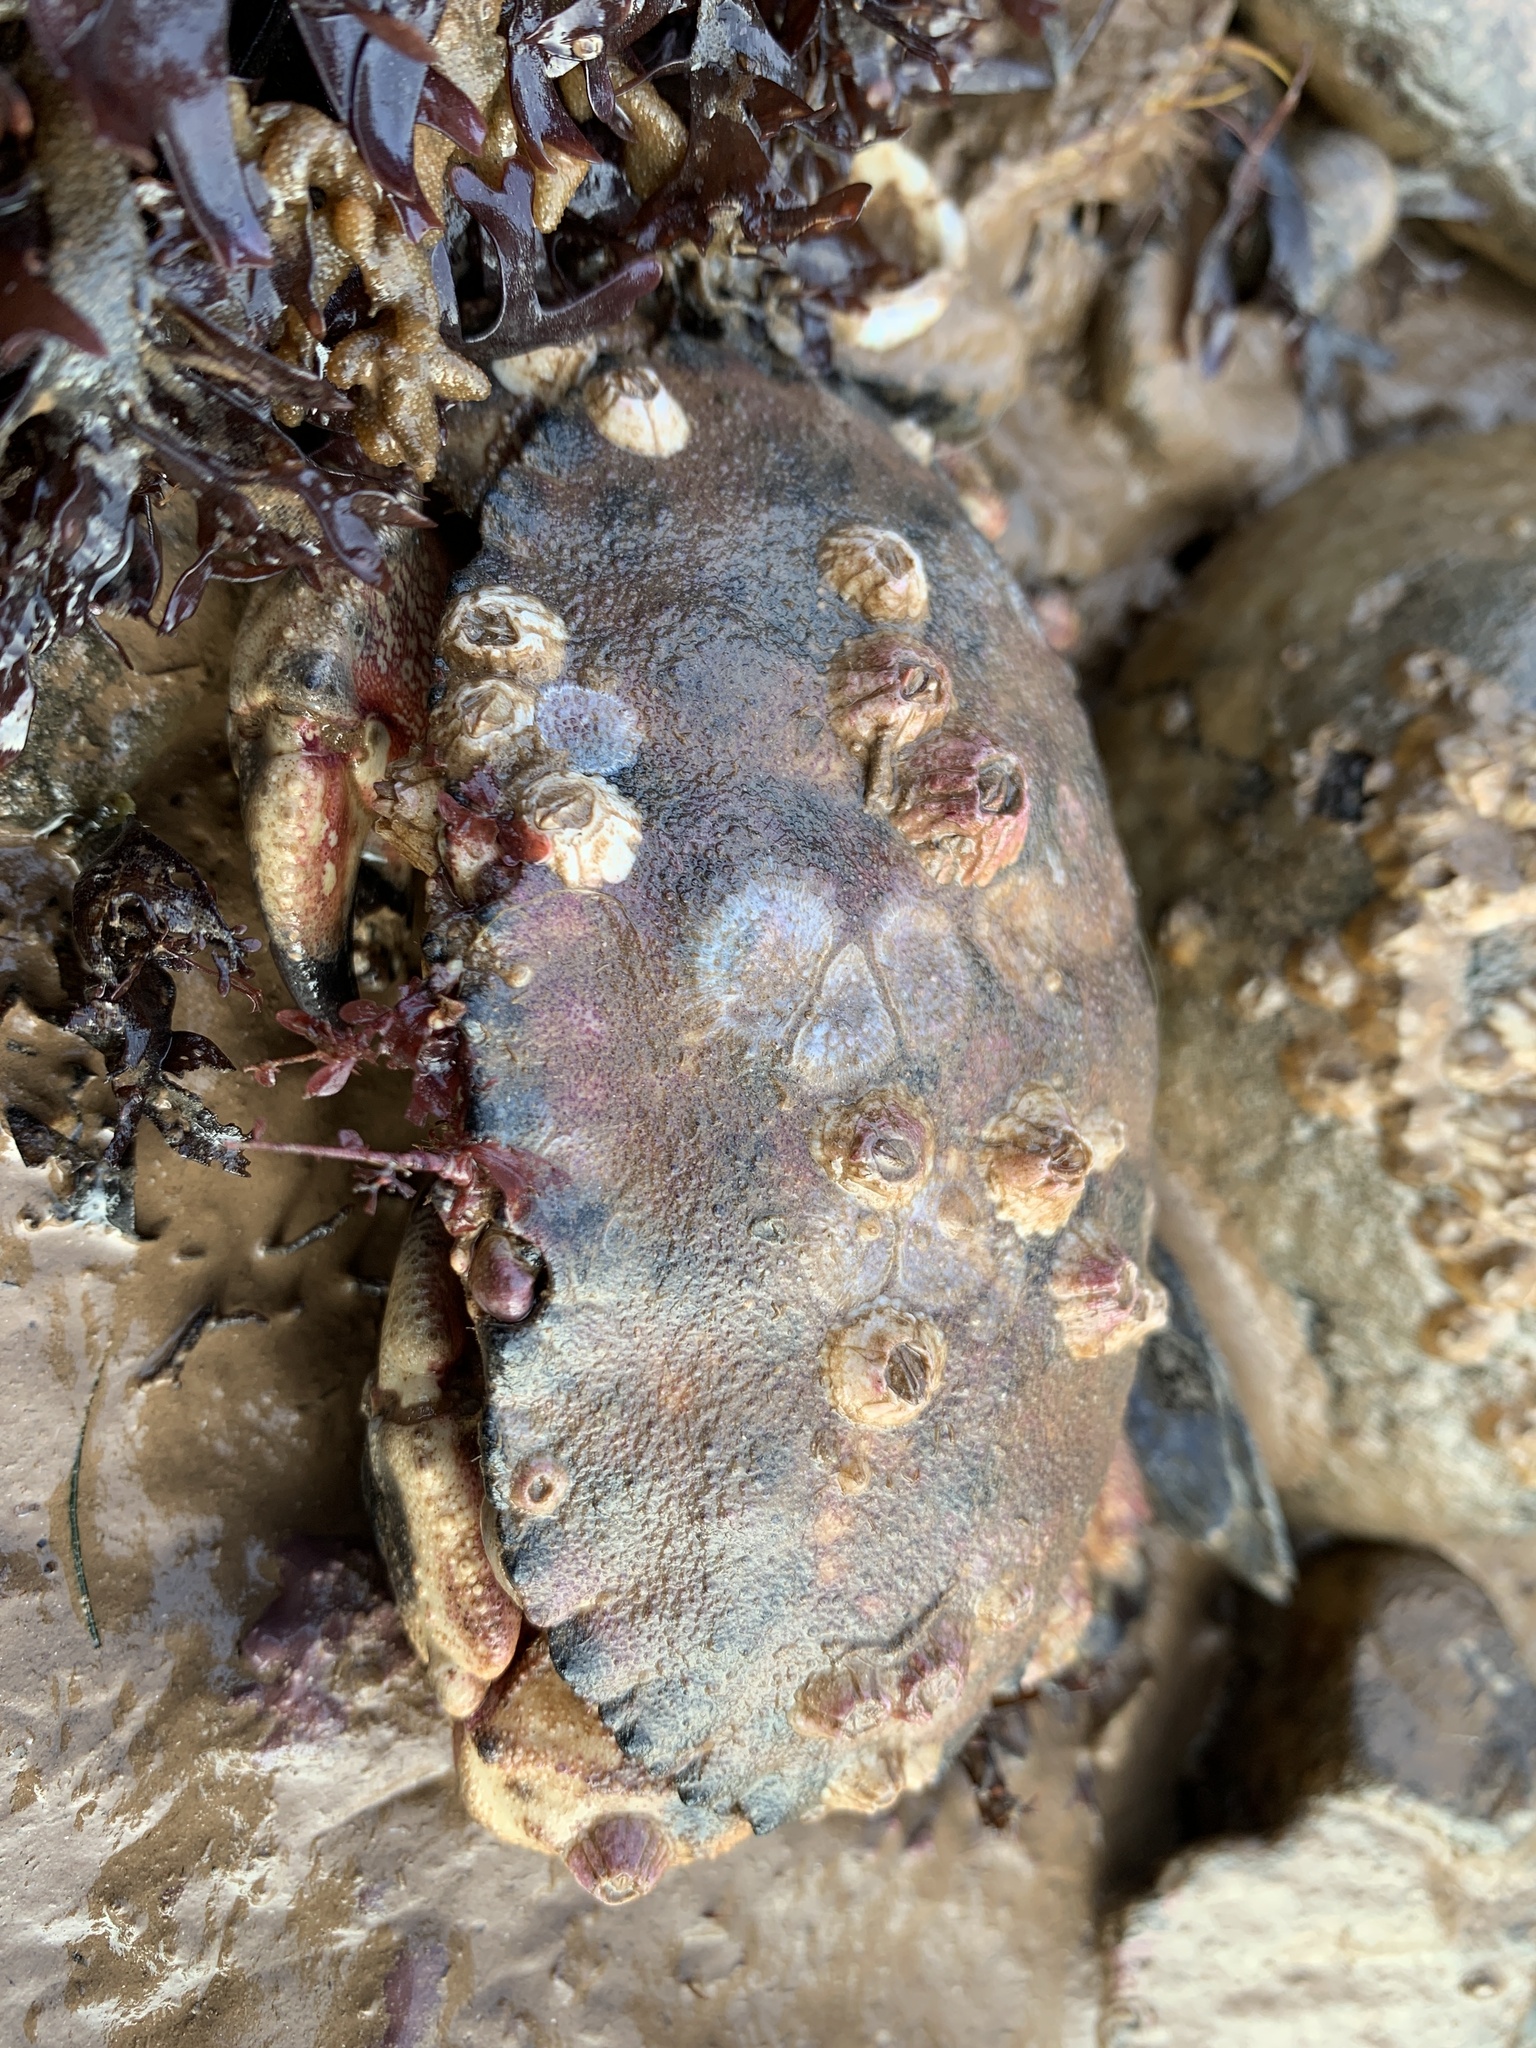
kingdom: Animalia
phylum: Arthropoda
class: Malacostraca
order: Decapoda
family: Cancridae
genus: Cancer
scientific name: Cancer borealis
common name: Jonah crab
